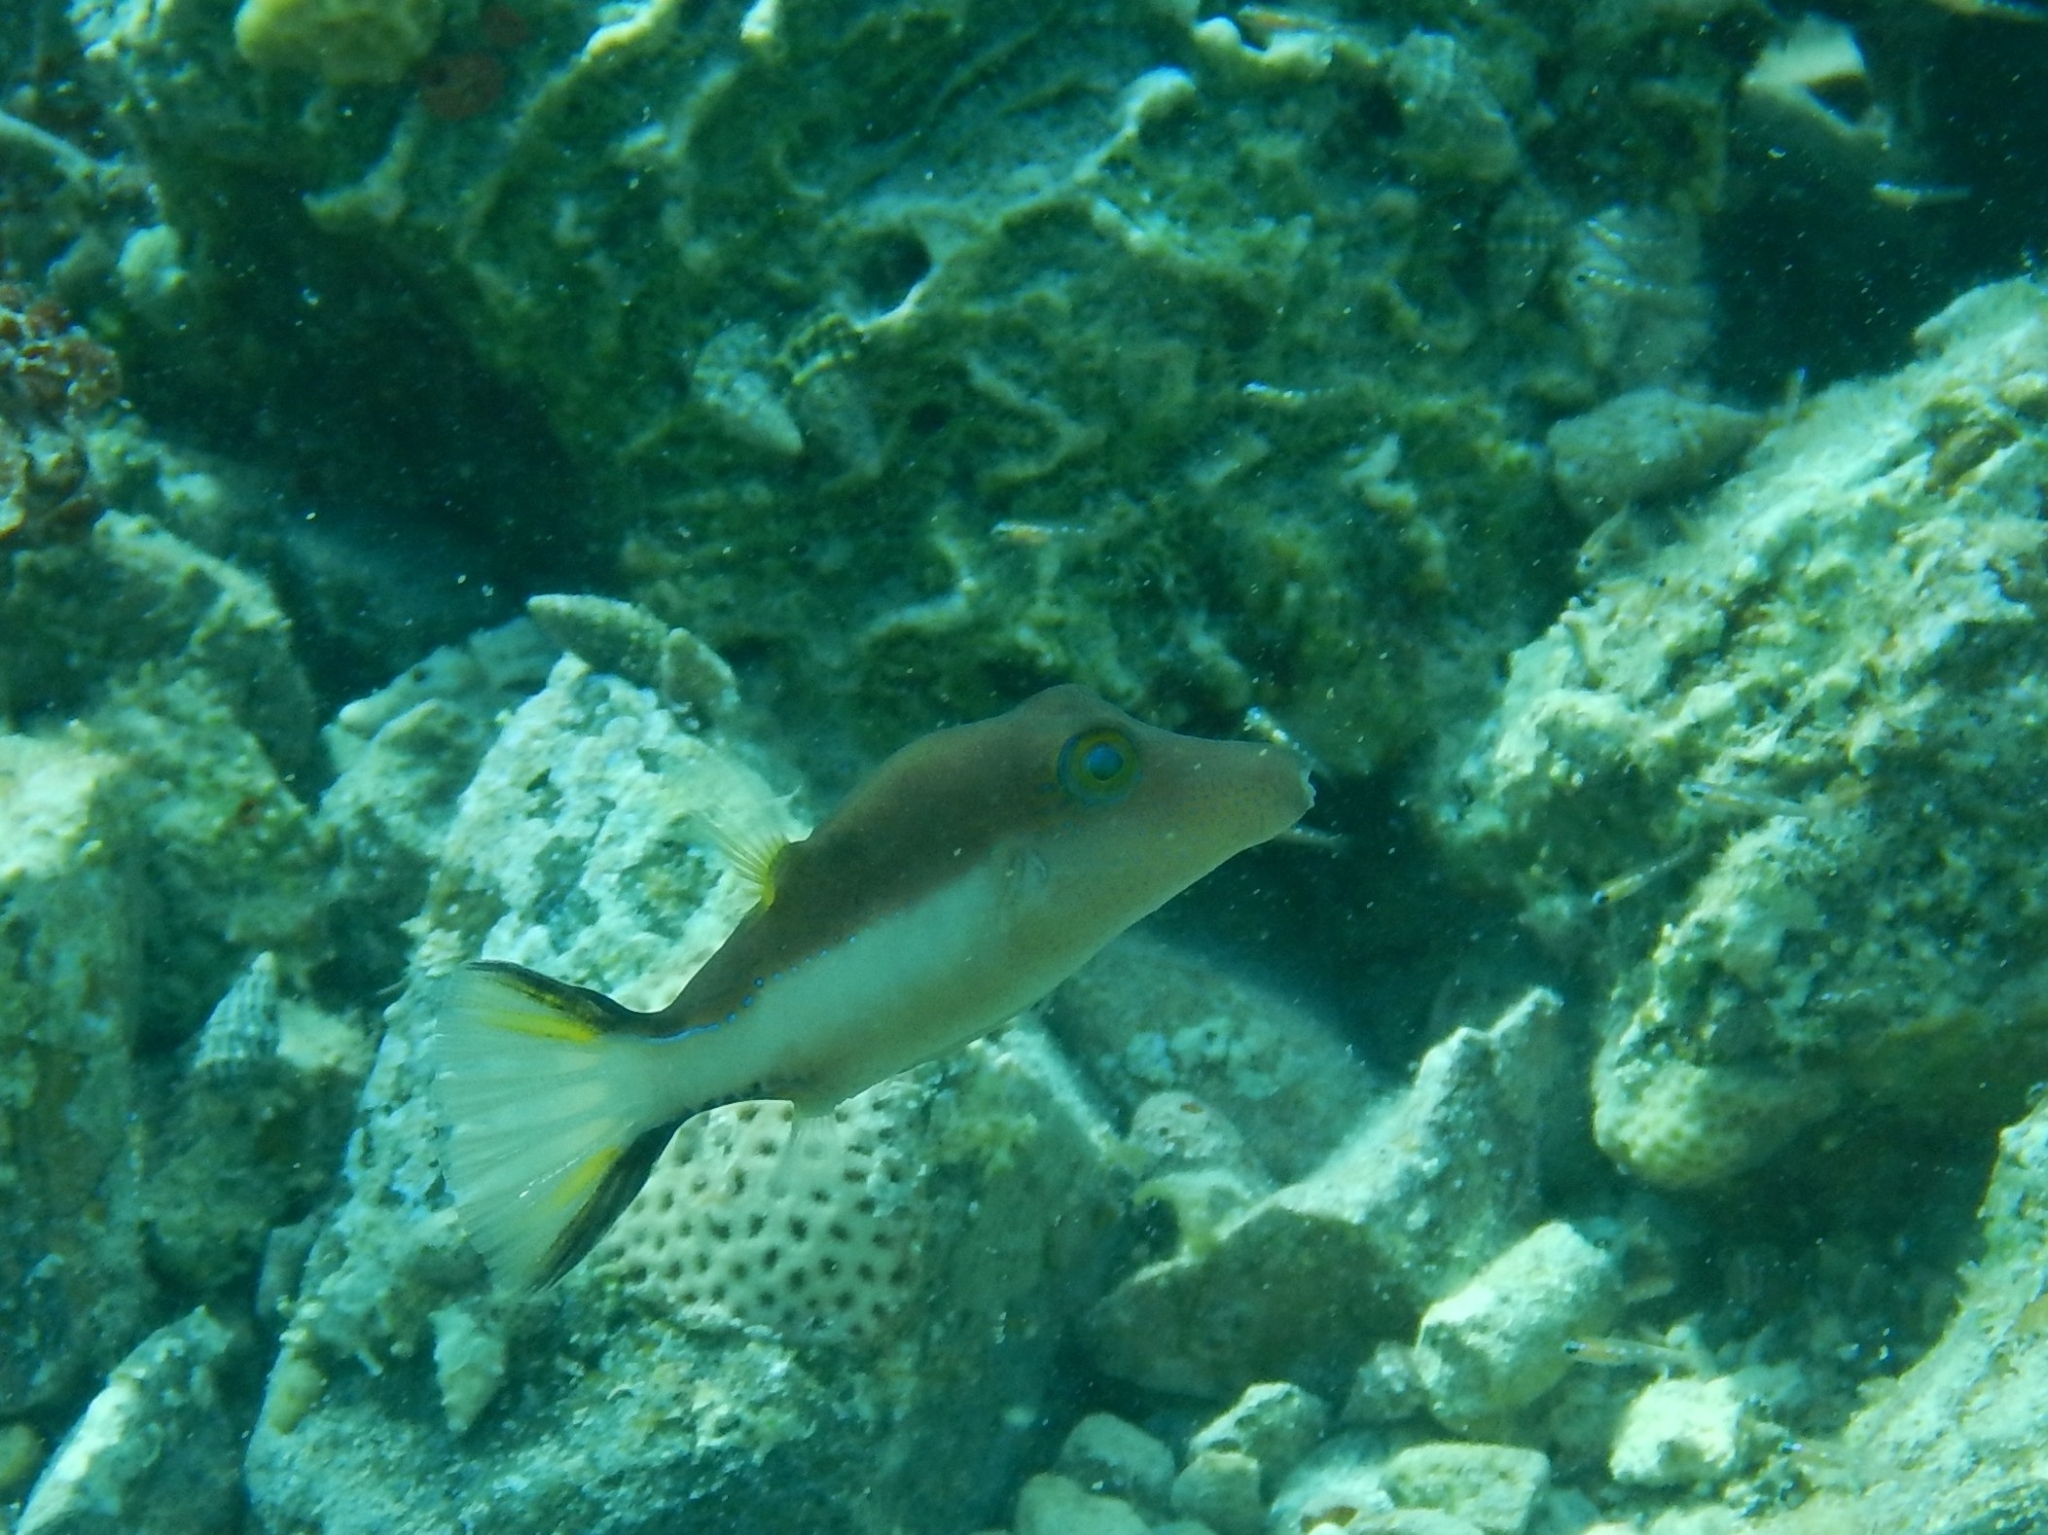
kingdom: Animalia
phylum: Chordata
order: Tetraodontiformes
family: Tetraodontidae
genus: Canthigaster
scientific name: Canthigaster rostrata
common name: Caribbean sharpnose-puffer
